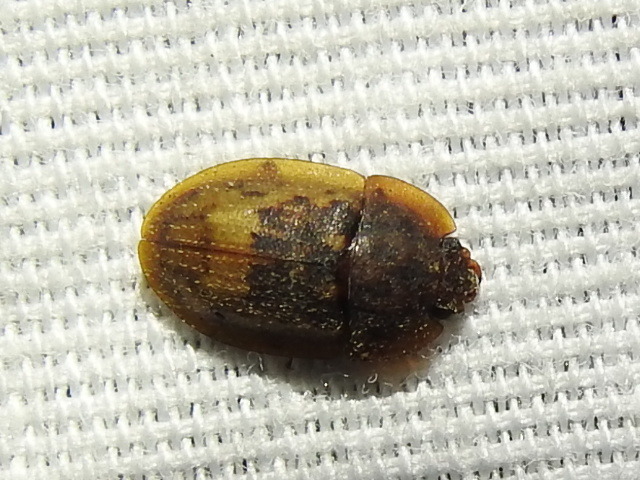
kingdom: Animalia
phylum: Arthropoda
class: Insecta
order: Coleoptera
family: Nitidulidae
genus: Lobiopa
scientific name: Lobiopa insularis
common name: Sap beetle
